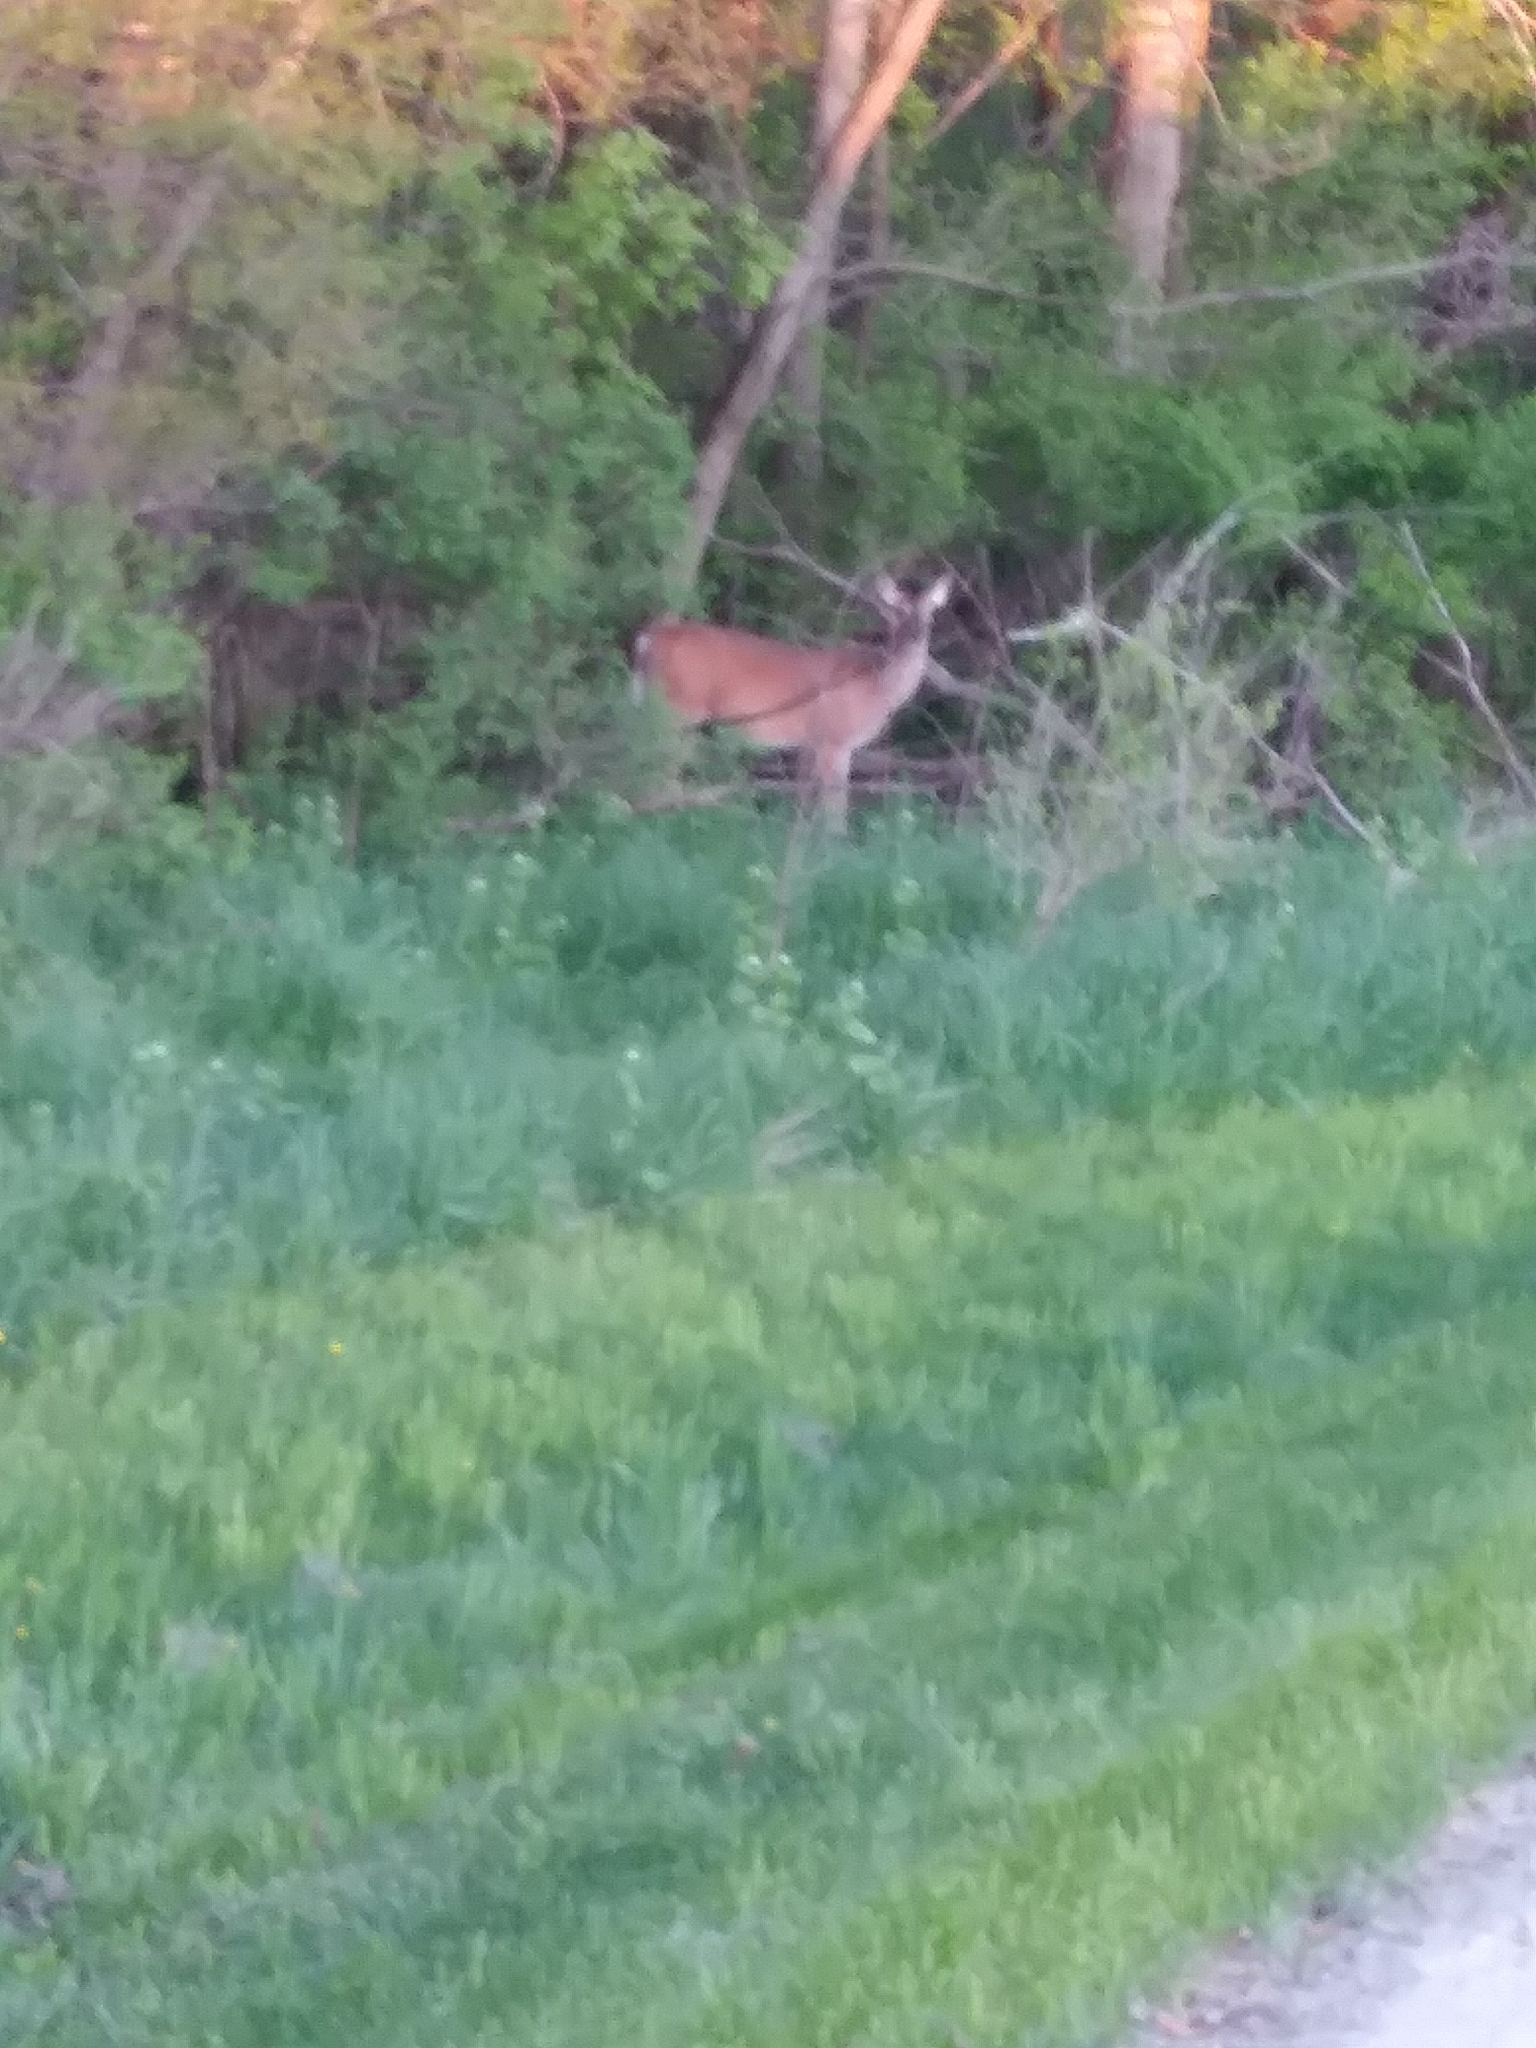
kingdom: Animalia
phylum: Chordata
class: Mammalia
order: Artiodactyla
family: Cervidae
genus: Odocoileus
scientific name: Odocoileus virginianus
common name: White-tailed deer
